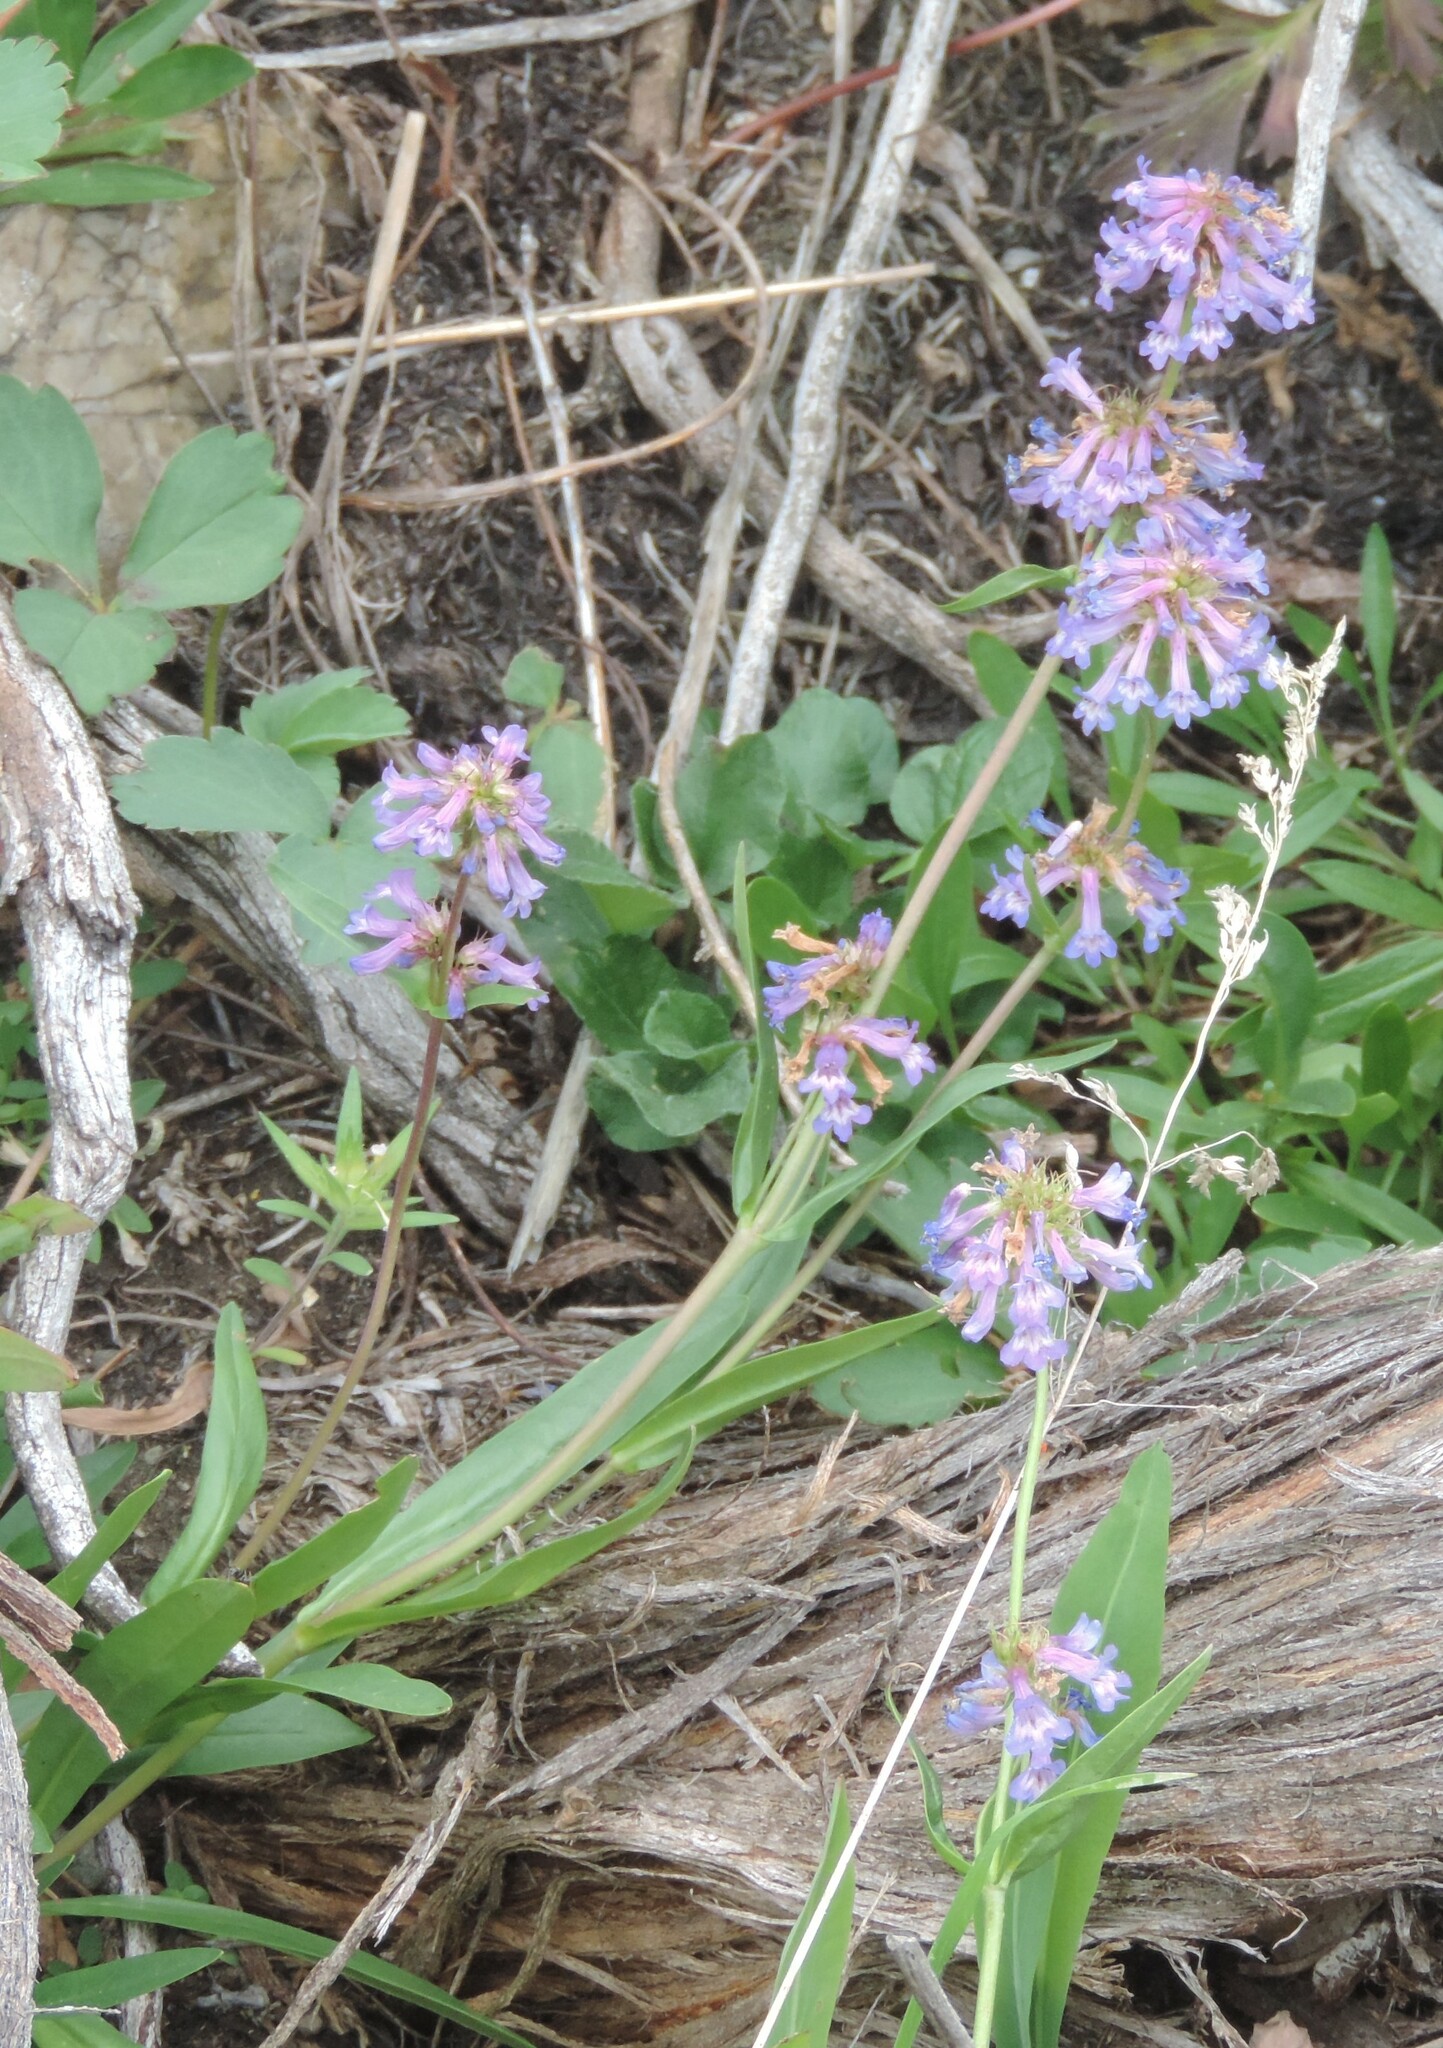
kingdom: Plantae
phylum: Tracheophyta
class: Magnoliopsida
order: Lamiales
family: Plantaginaceae
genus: Penstemon
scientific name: Penstemon procerus
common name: Small-flower penstemon
